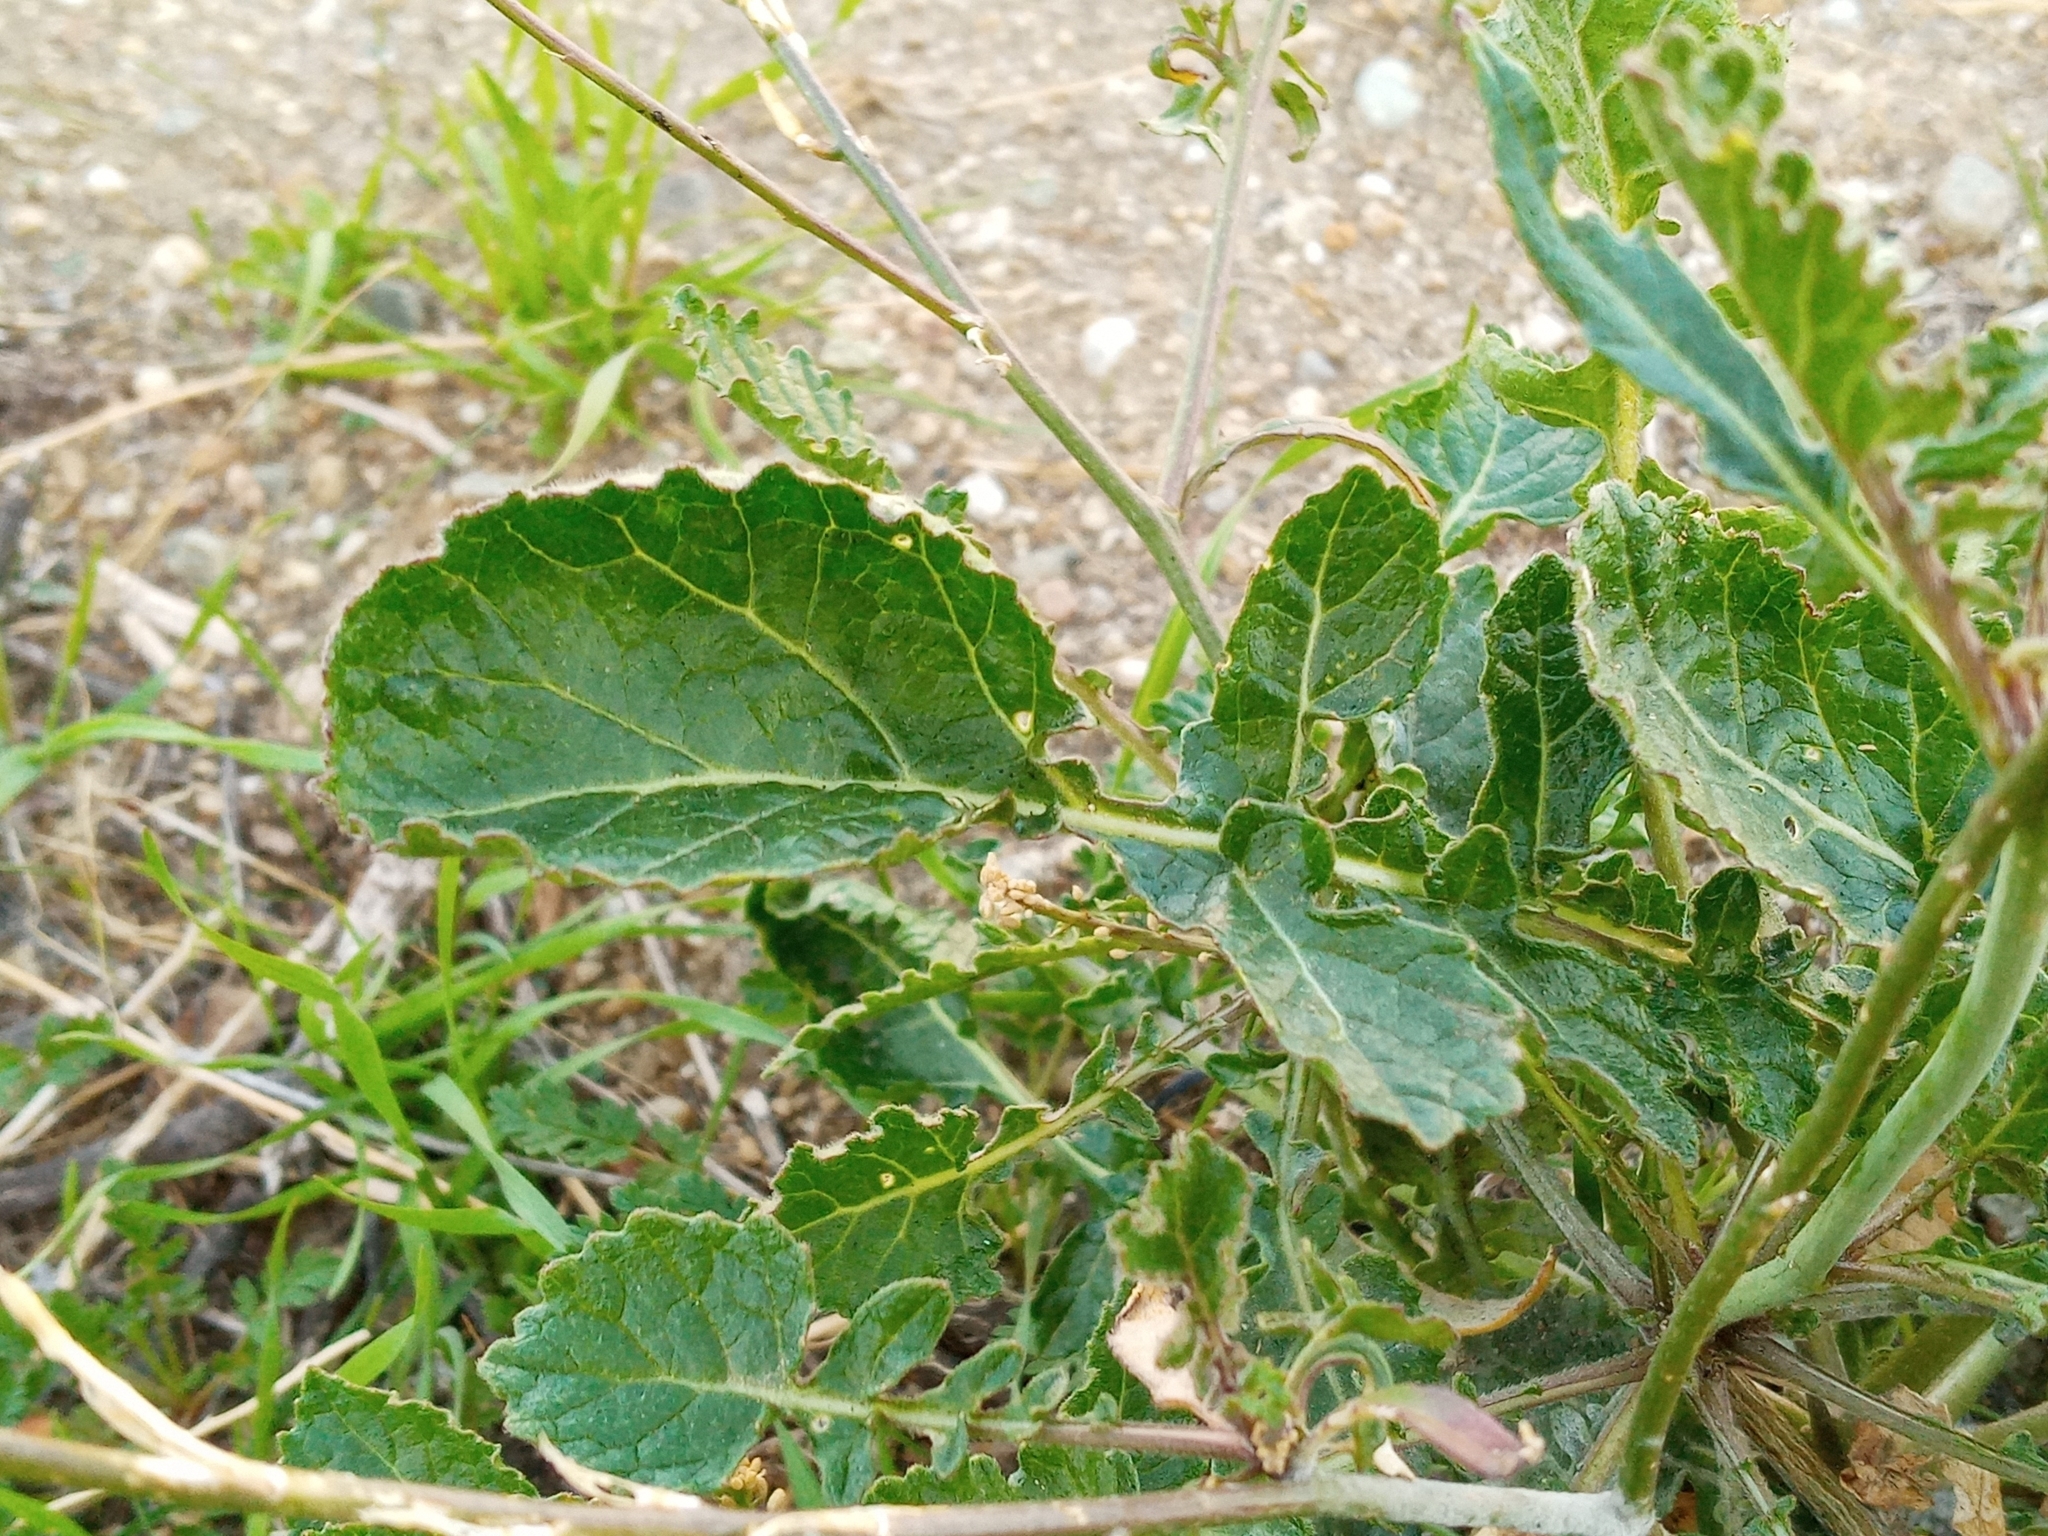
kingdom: Plantae
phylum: Tracheophyta
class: Magnoliopsida
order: Brassicales
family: Brassicaceae
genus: Hirschfeldia
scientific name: Hirschfeldia incana
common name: Hoary mustard
